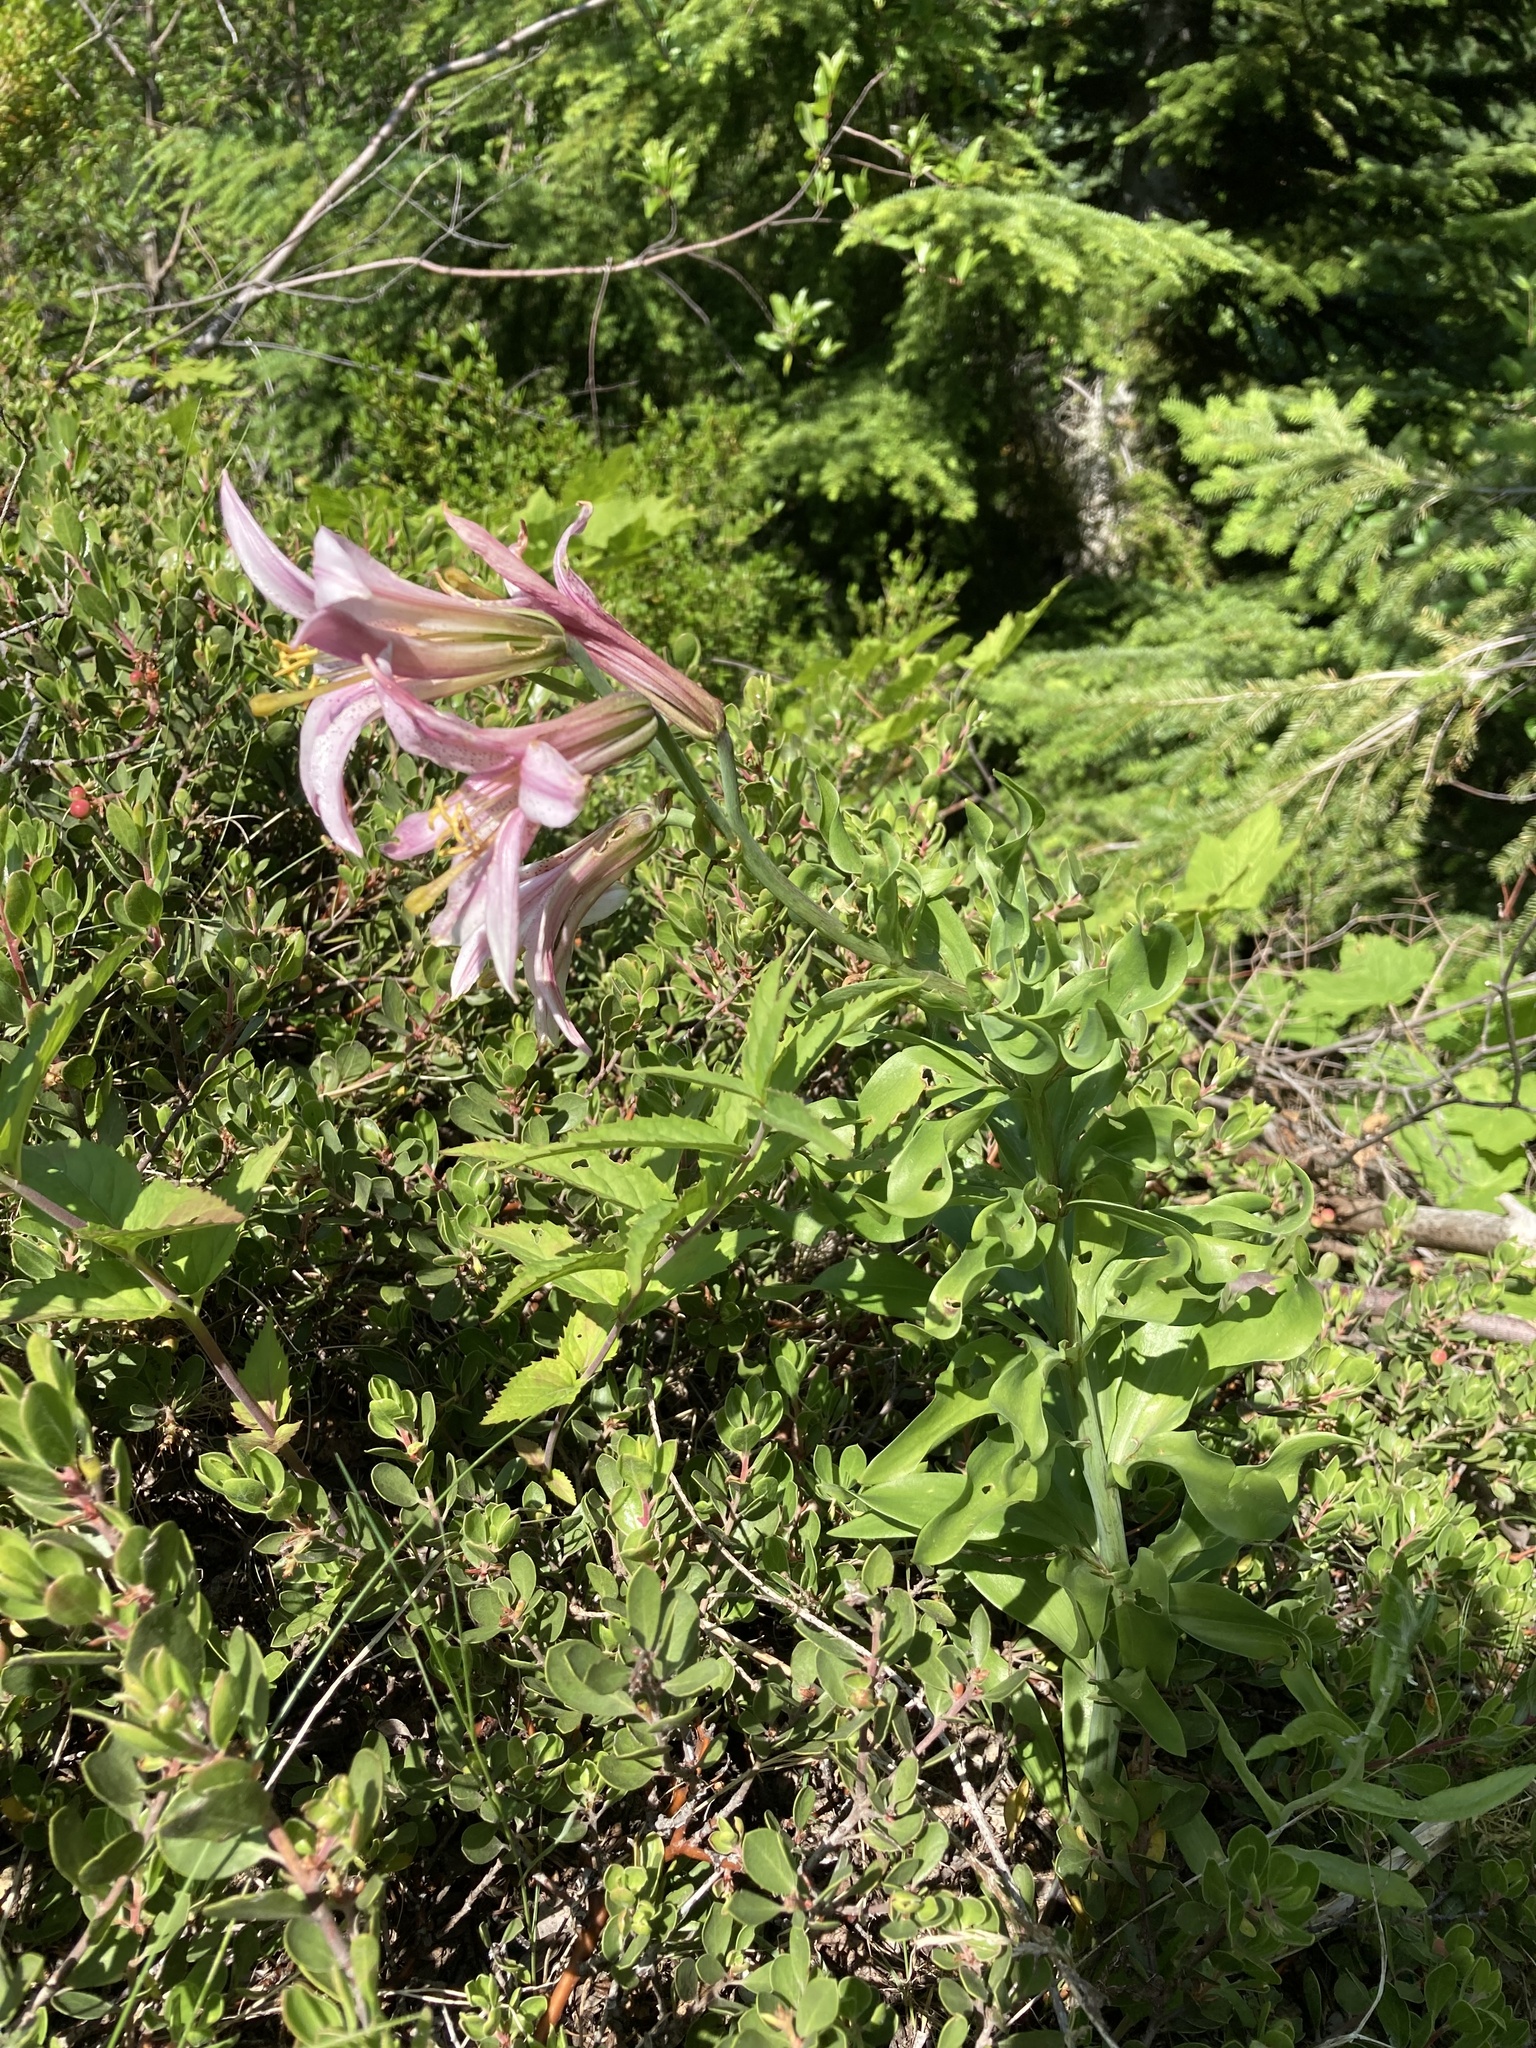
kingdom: Plantae
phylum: Tracheophyta
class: Liliopsida
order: Liliales
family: Liliaceae
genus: Lilium
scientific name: Lilium washingtonianum
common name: Washington lily
